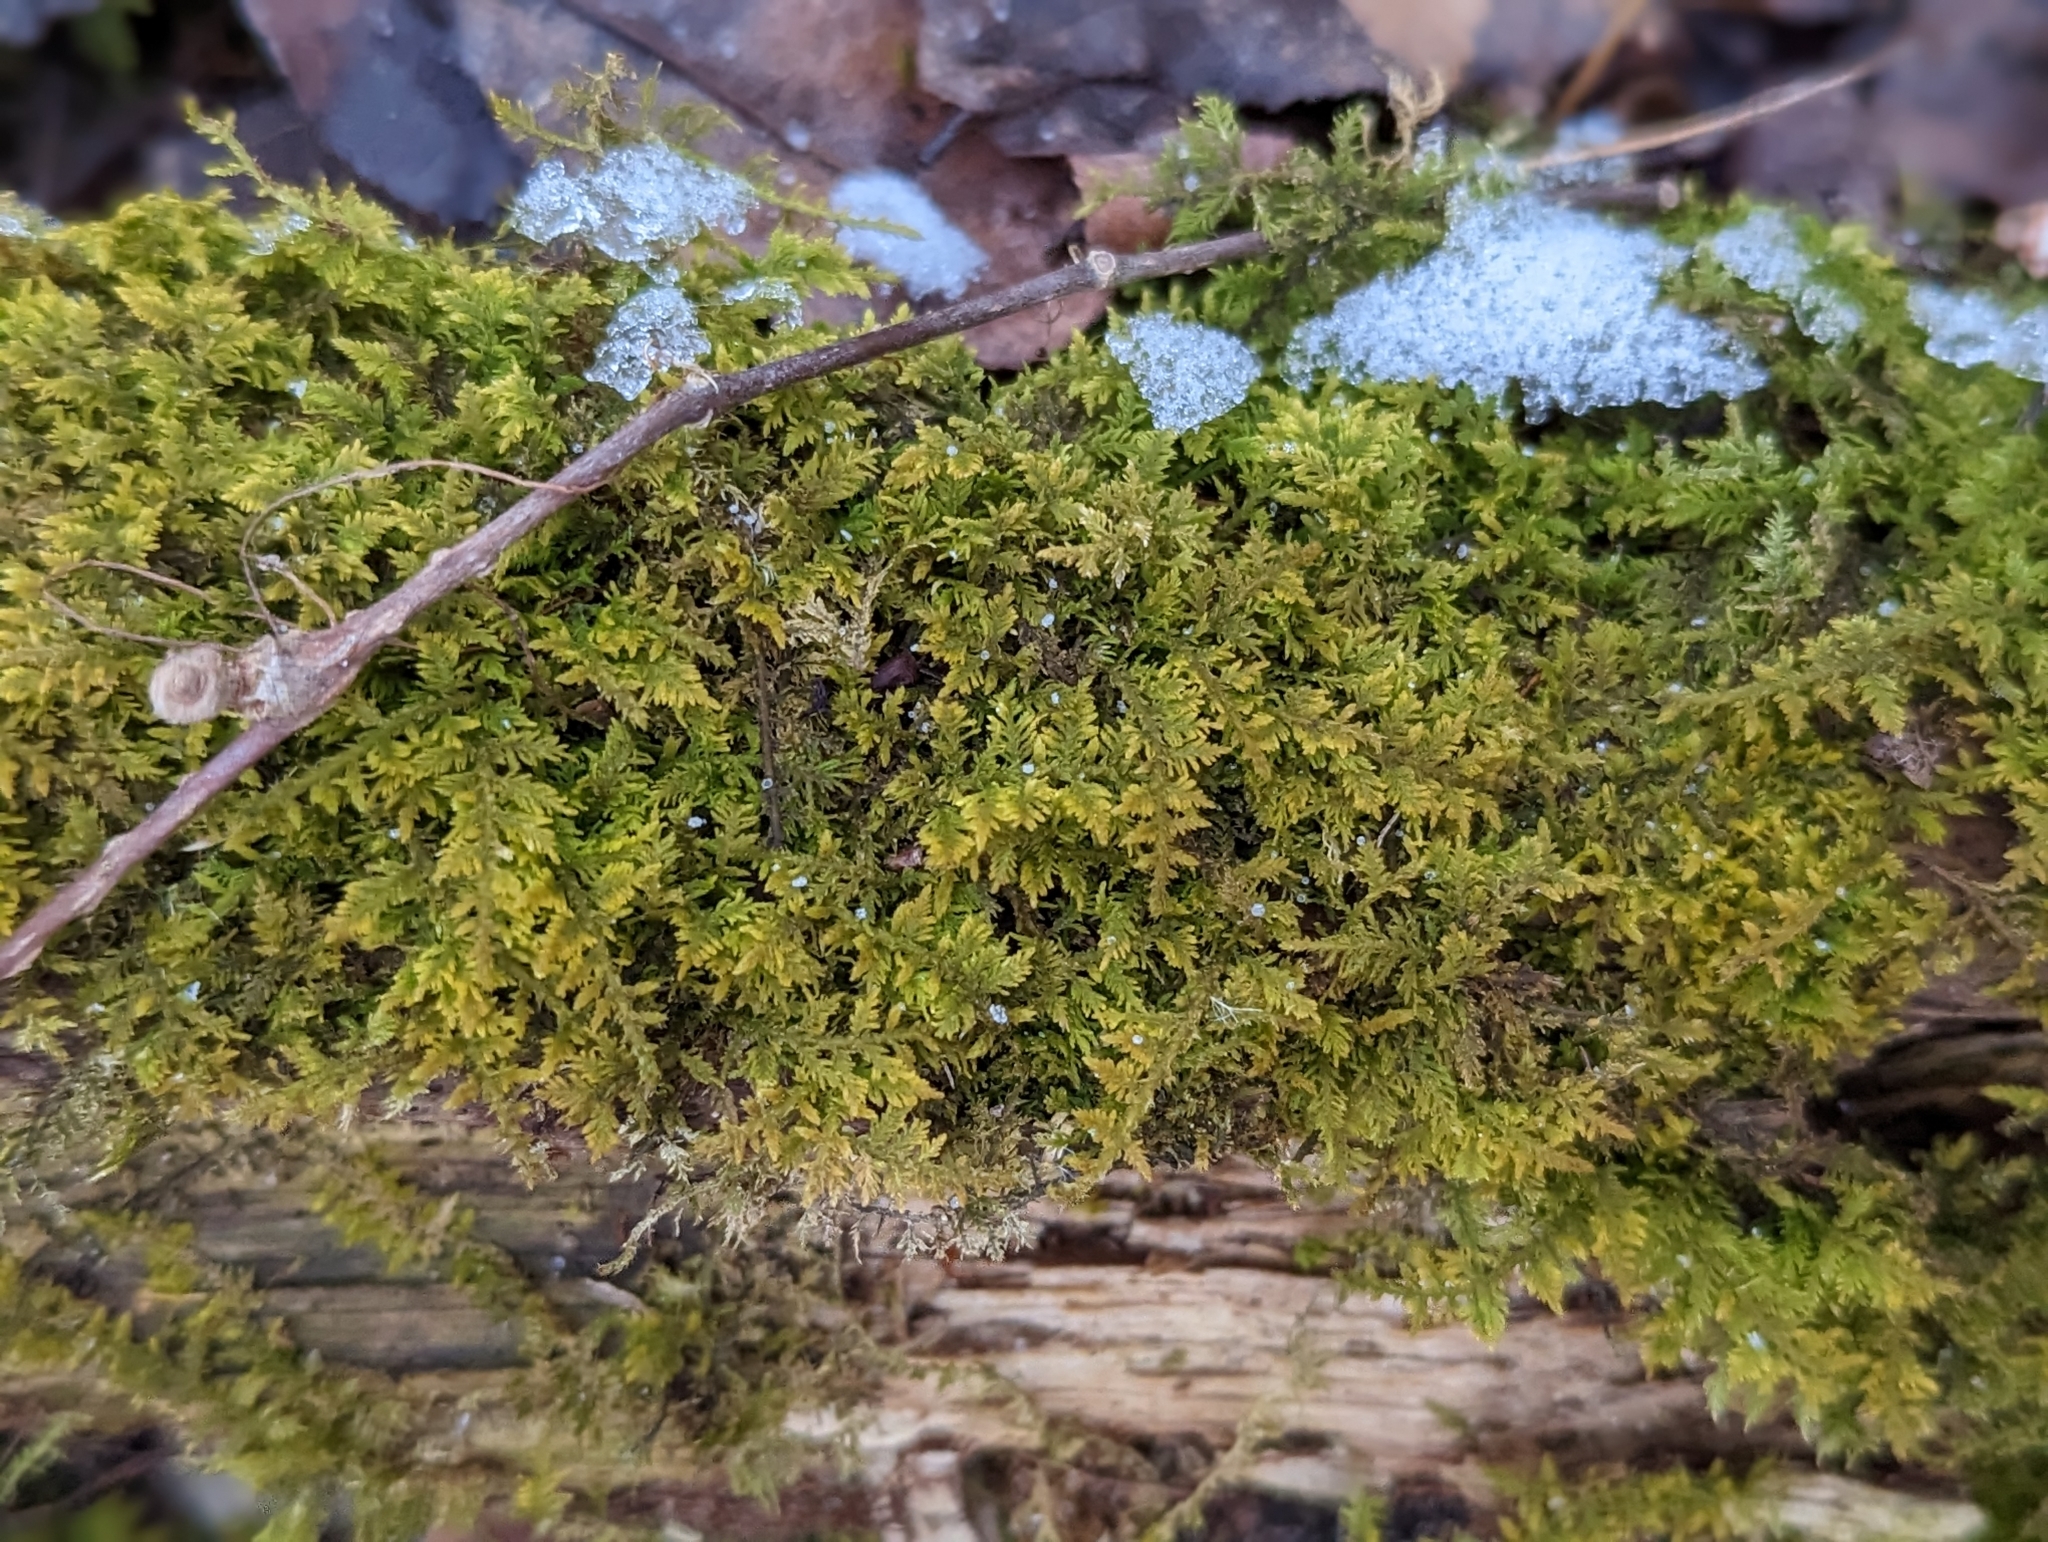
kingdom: Plantae
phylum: Bryophyta
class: Bryopsida
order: Hypnales
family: Thuidiaceae
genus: Thuidium
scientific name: Thuidium delicatulum
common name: Delicate fern moss
